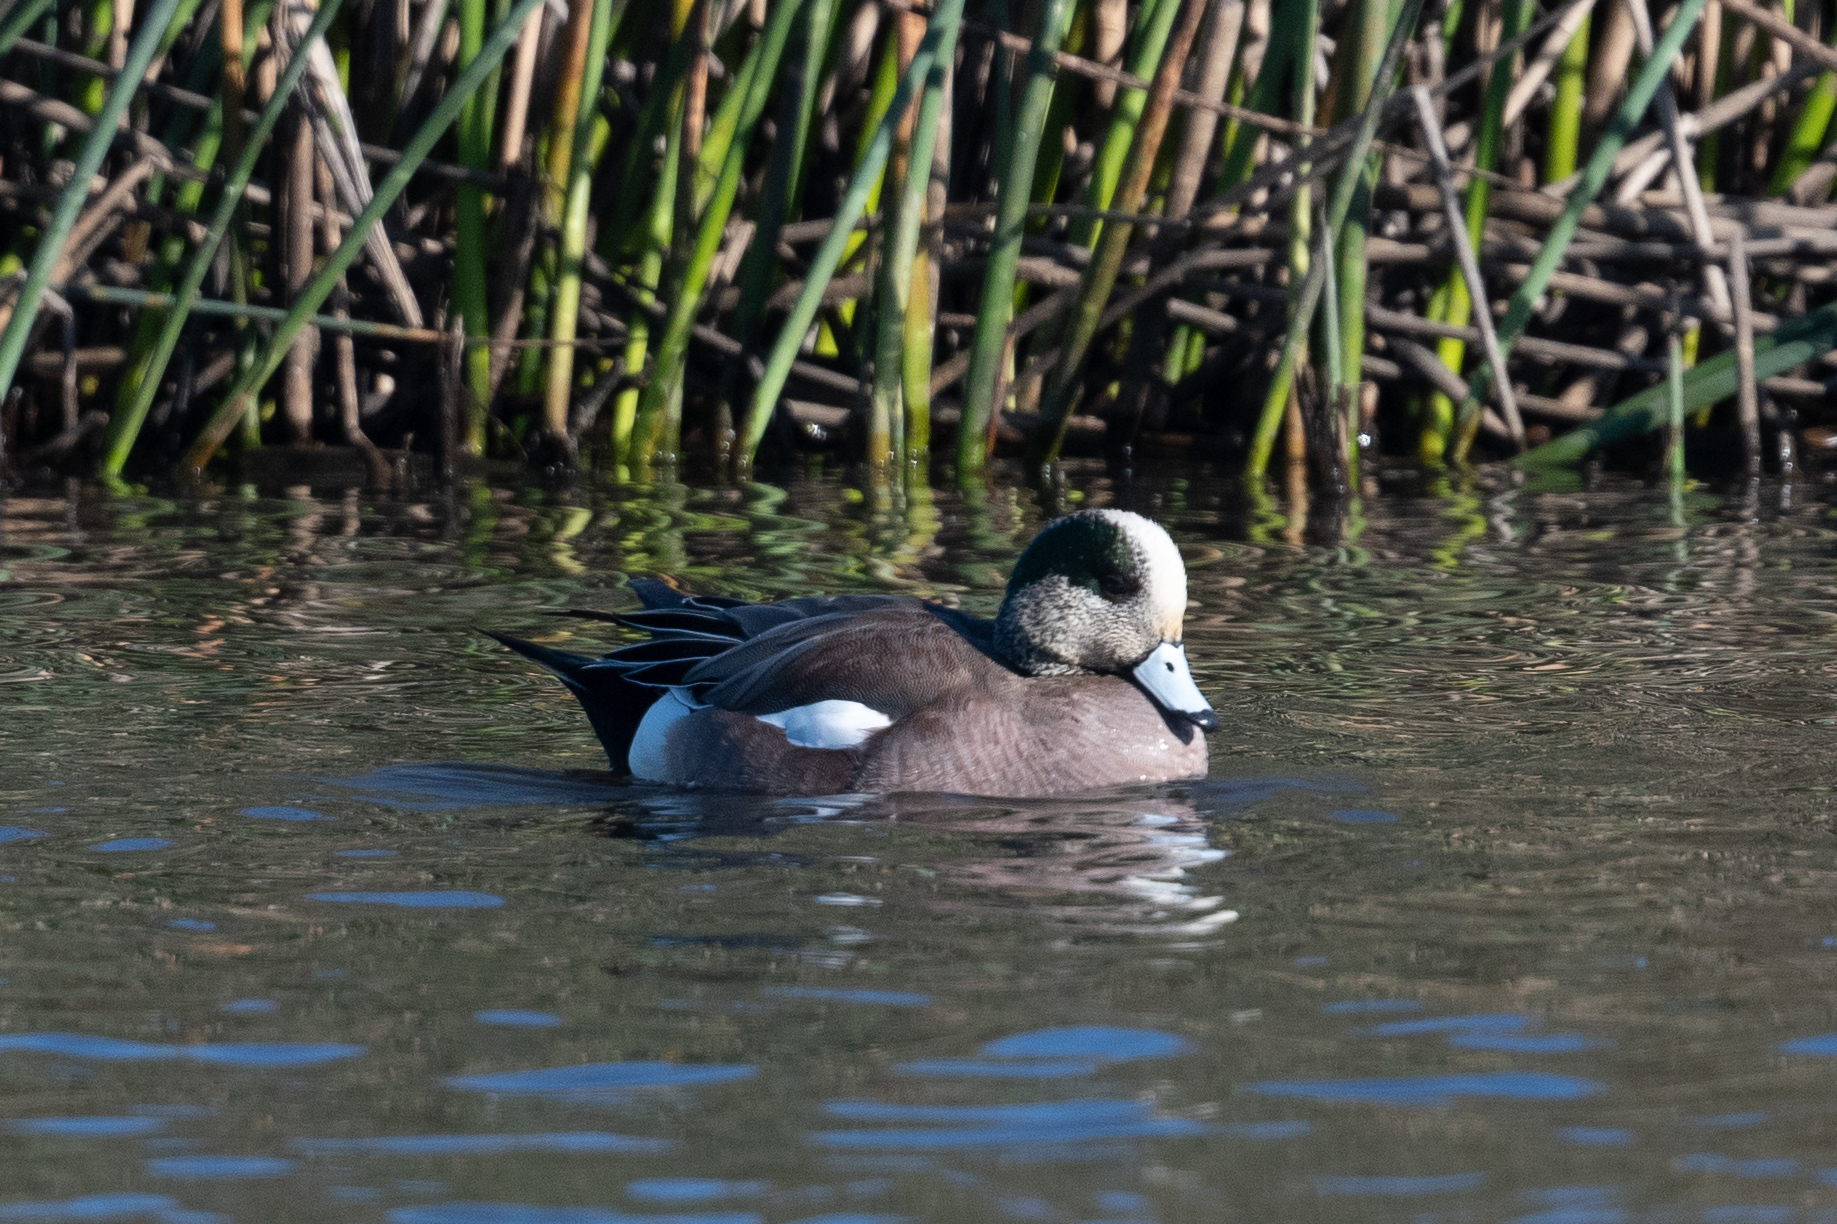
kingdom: Animalia
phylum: Chordata
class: Aves
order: Anseriformes
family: Anatidae
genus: Mareca
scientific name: Mareca americana
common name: American wigeon
